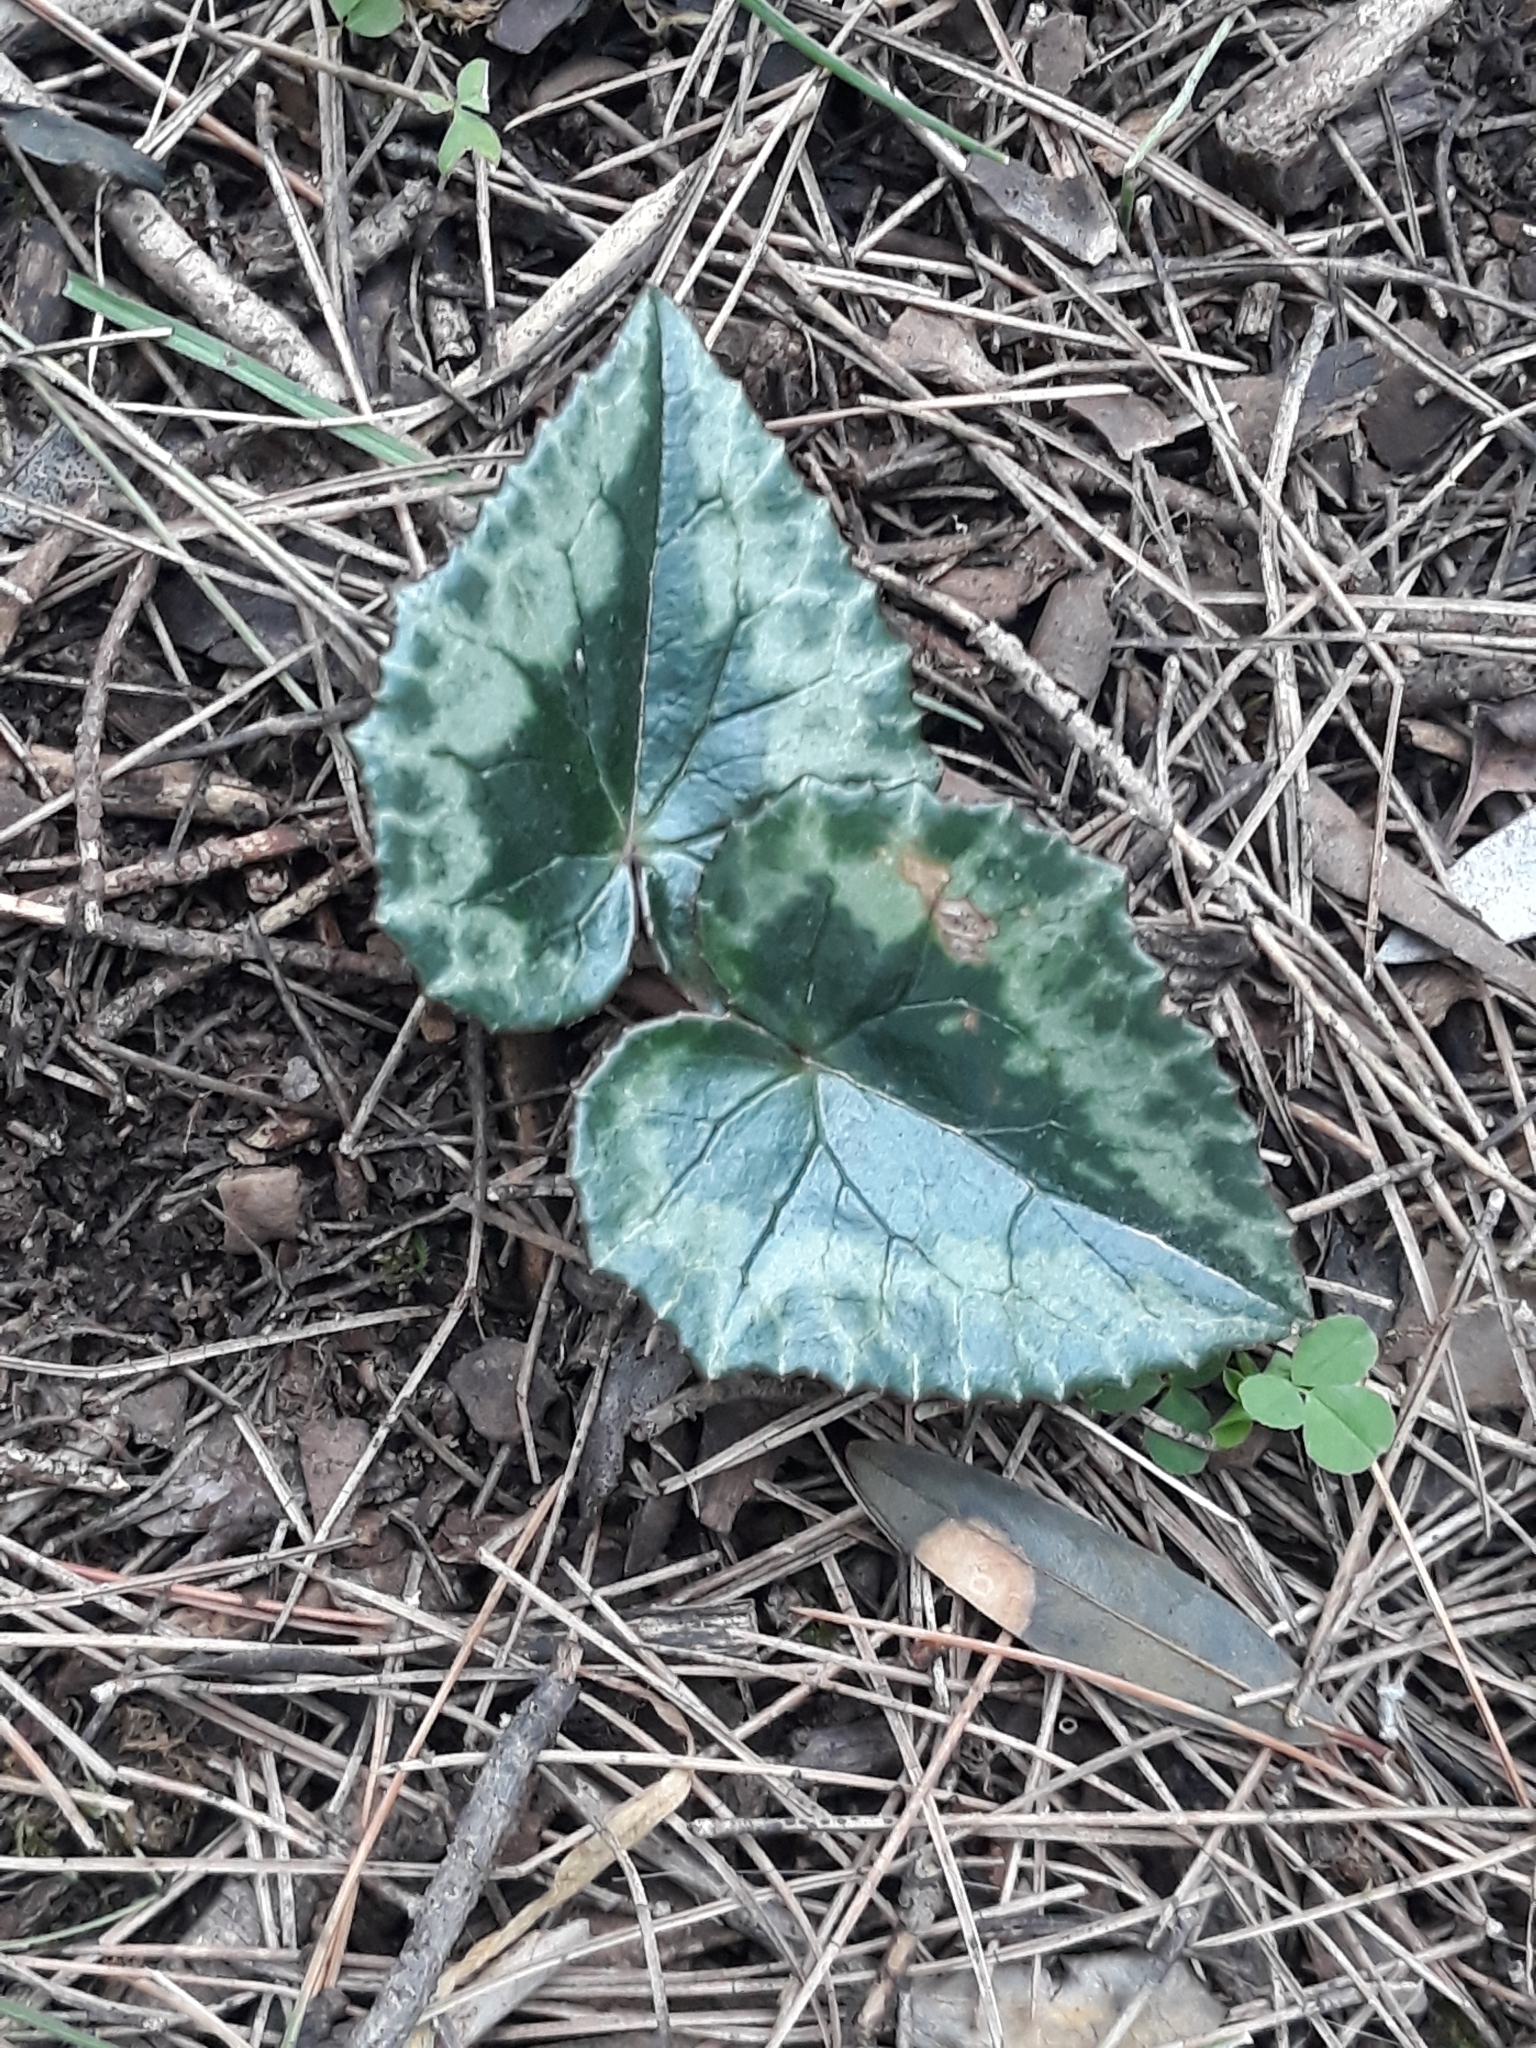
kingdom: Plantae
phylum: Tracheophyta
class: Magnoliopsida
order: Ericales
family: Primulaceae
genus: Cyclamen
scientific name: Cyclamen africanum
